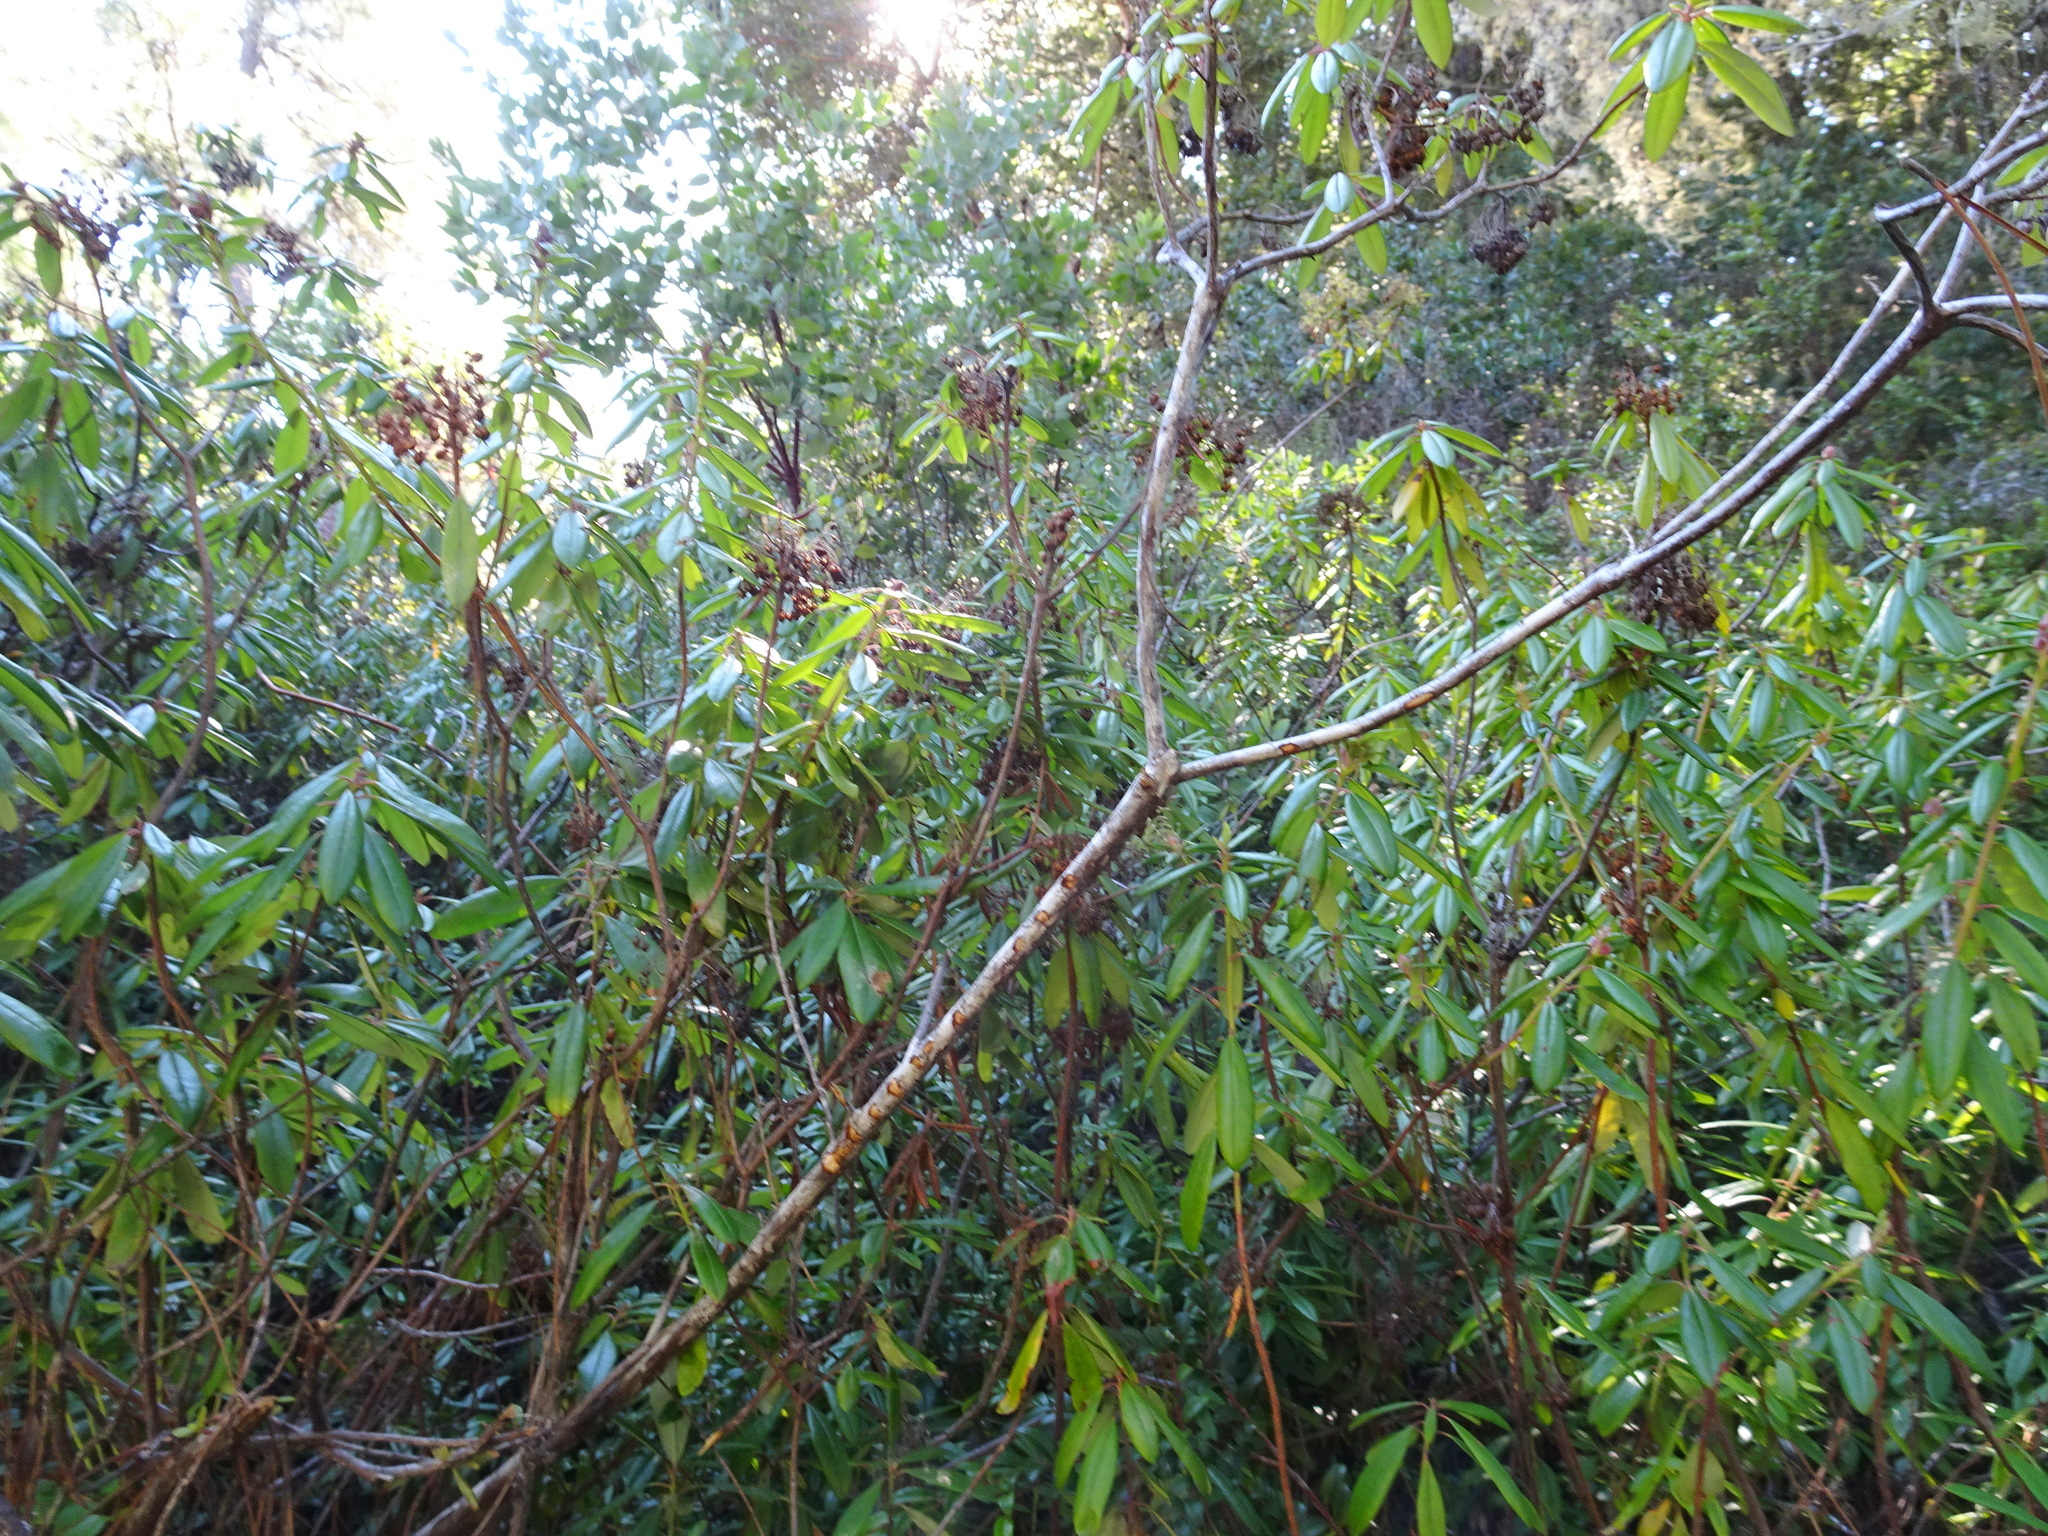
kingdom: Plantae
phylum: Tracheophyta
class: Magnoliopsida
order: Ericales
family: Ericaceae
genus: Rhododendron
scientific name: Rhododendron columbianum
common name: Western labrador tea
